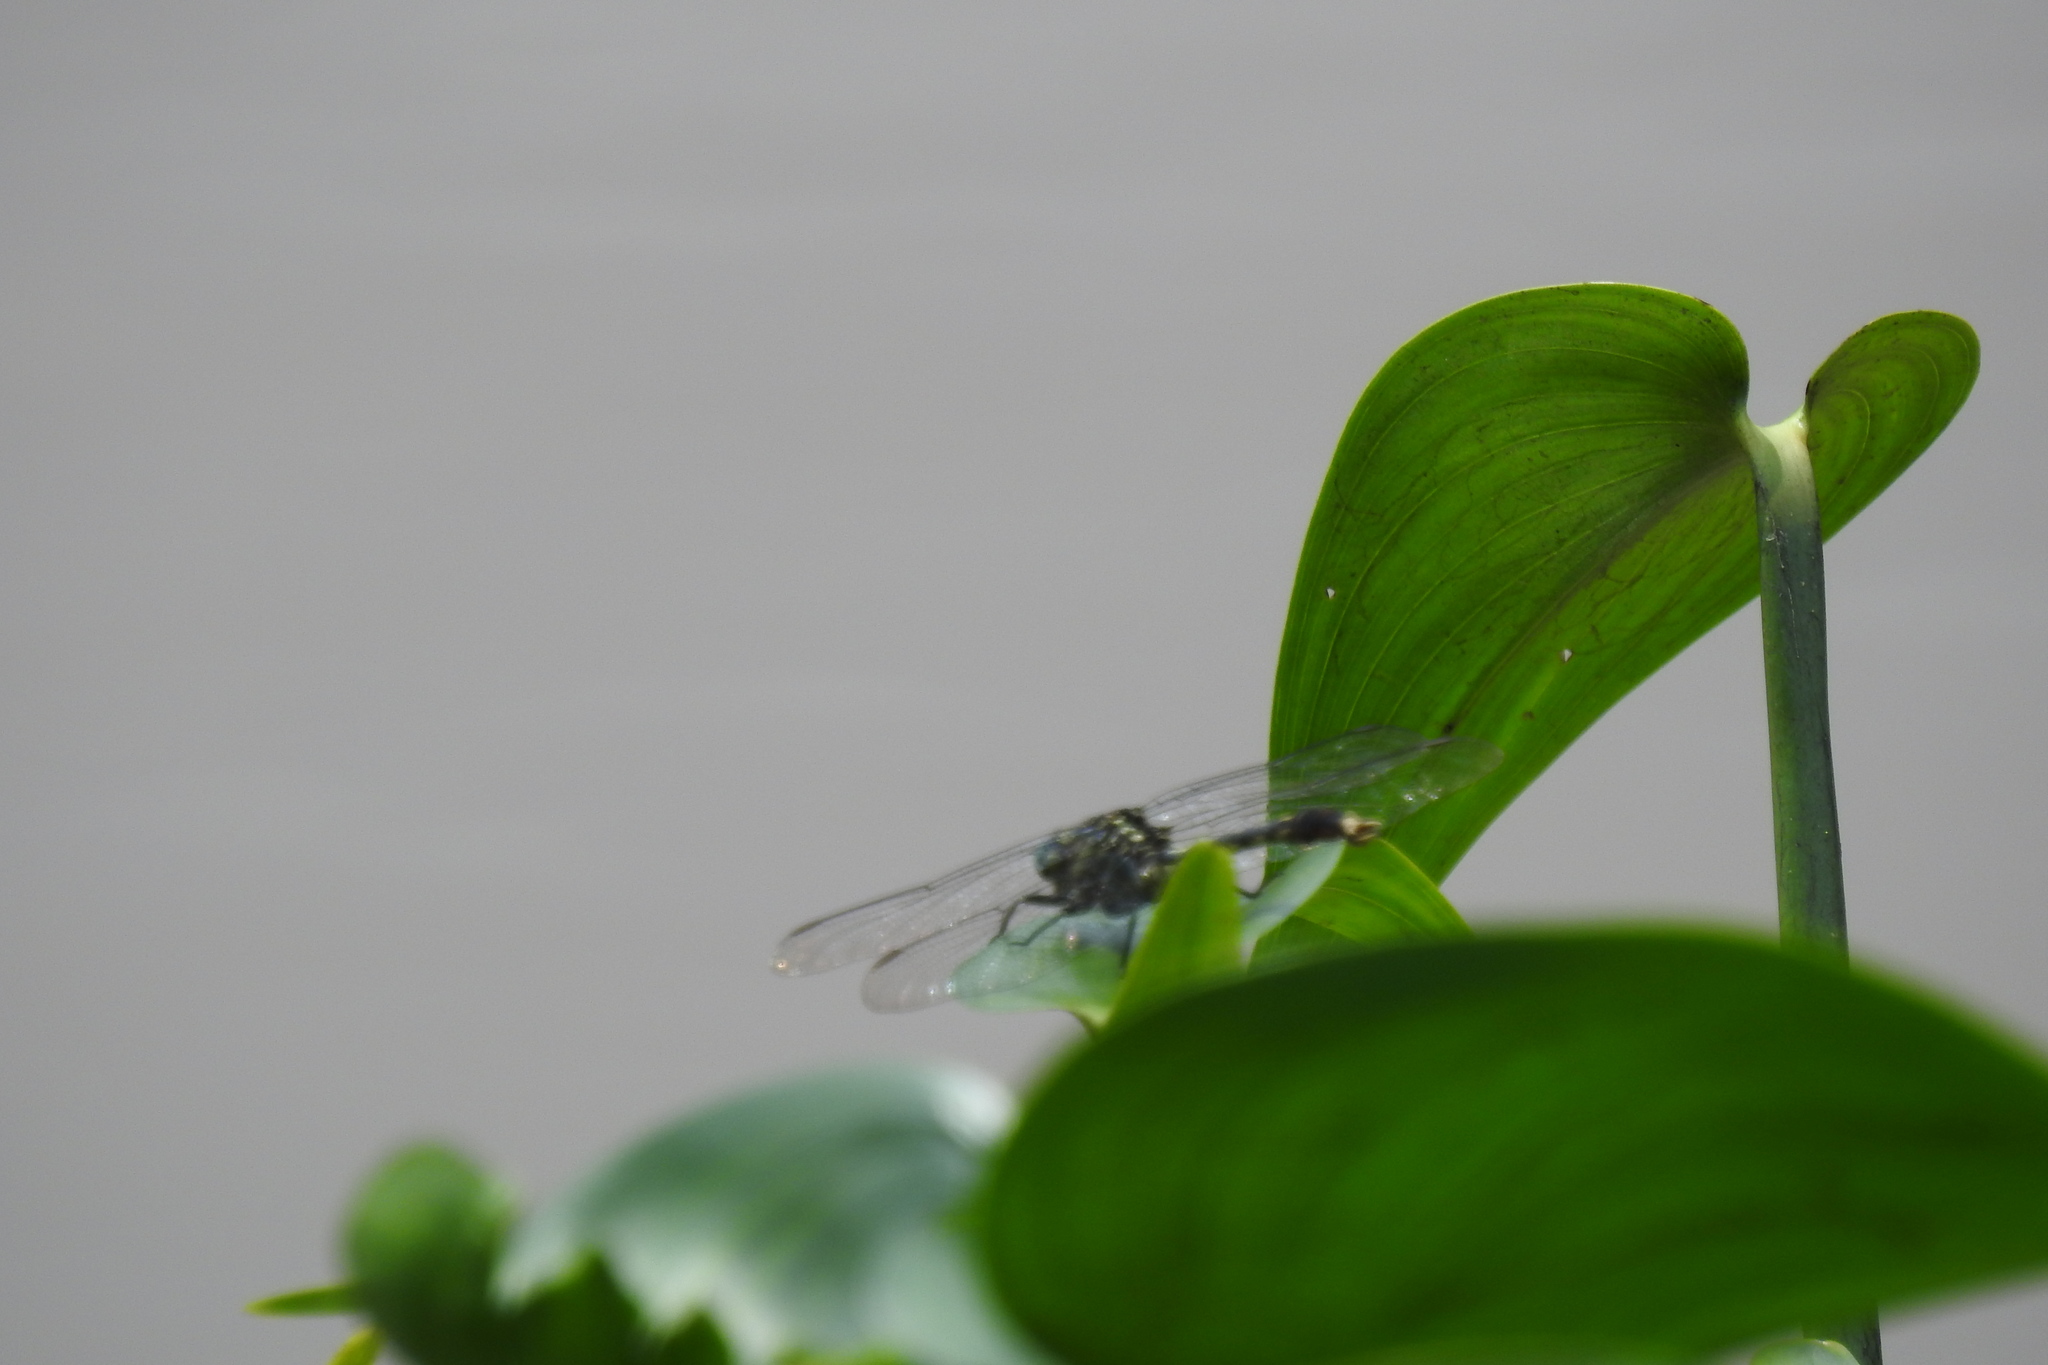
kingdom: Animalia
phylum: Arthropoda
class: Insecta
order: Odonata
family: Gomphidae
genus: Arigomphus
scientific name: Arigomphus villosipes
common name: Unicorn clubtail
